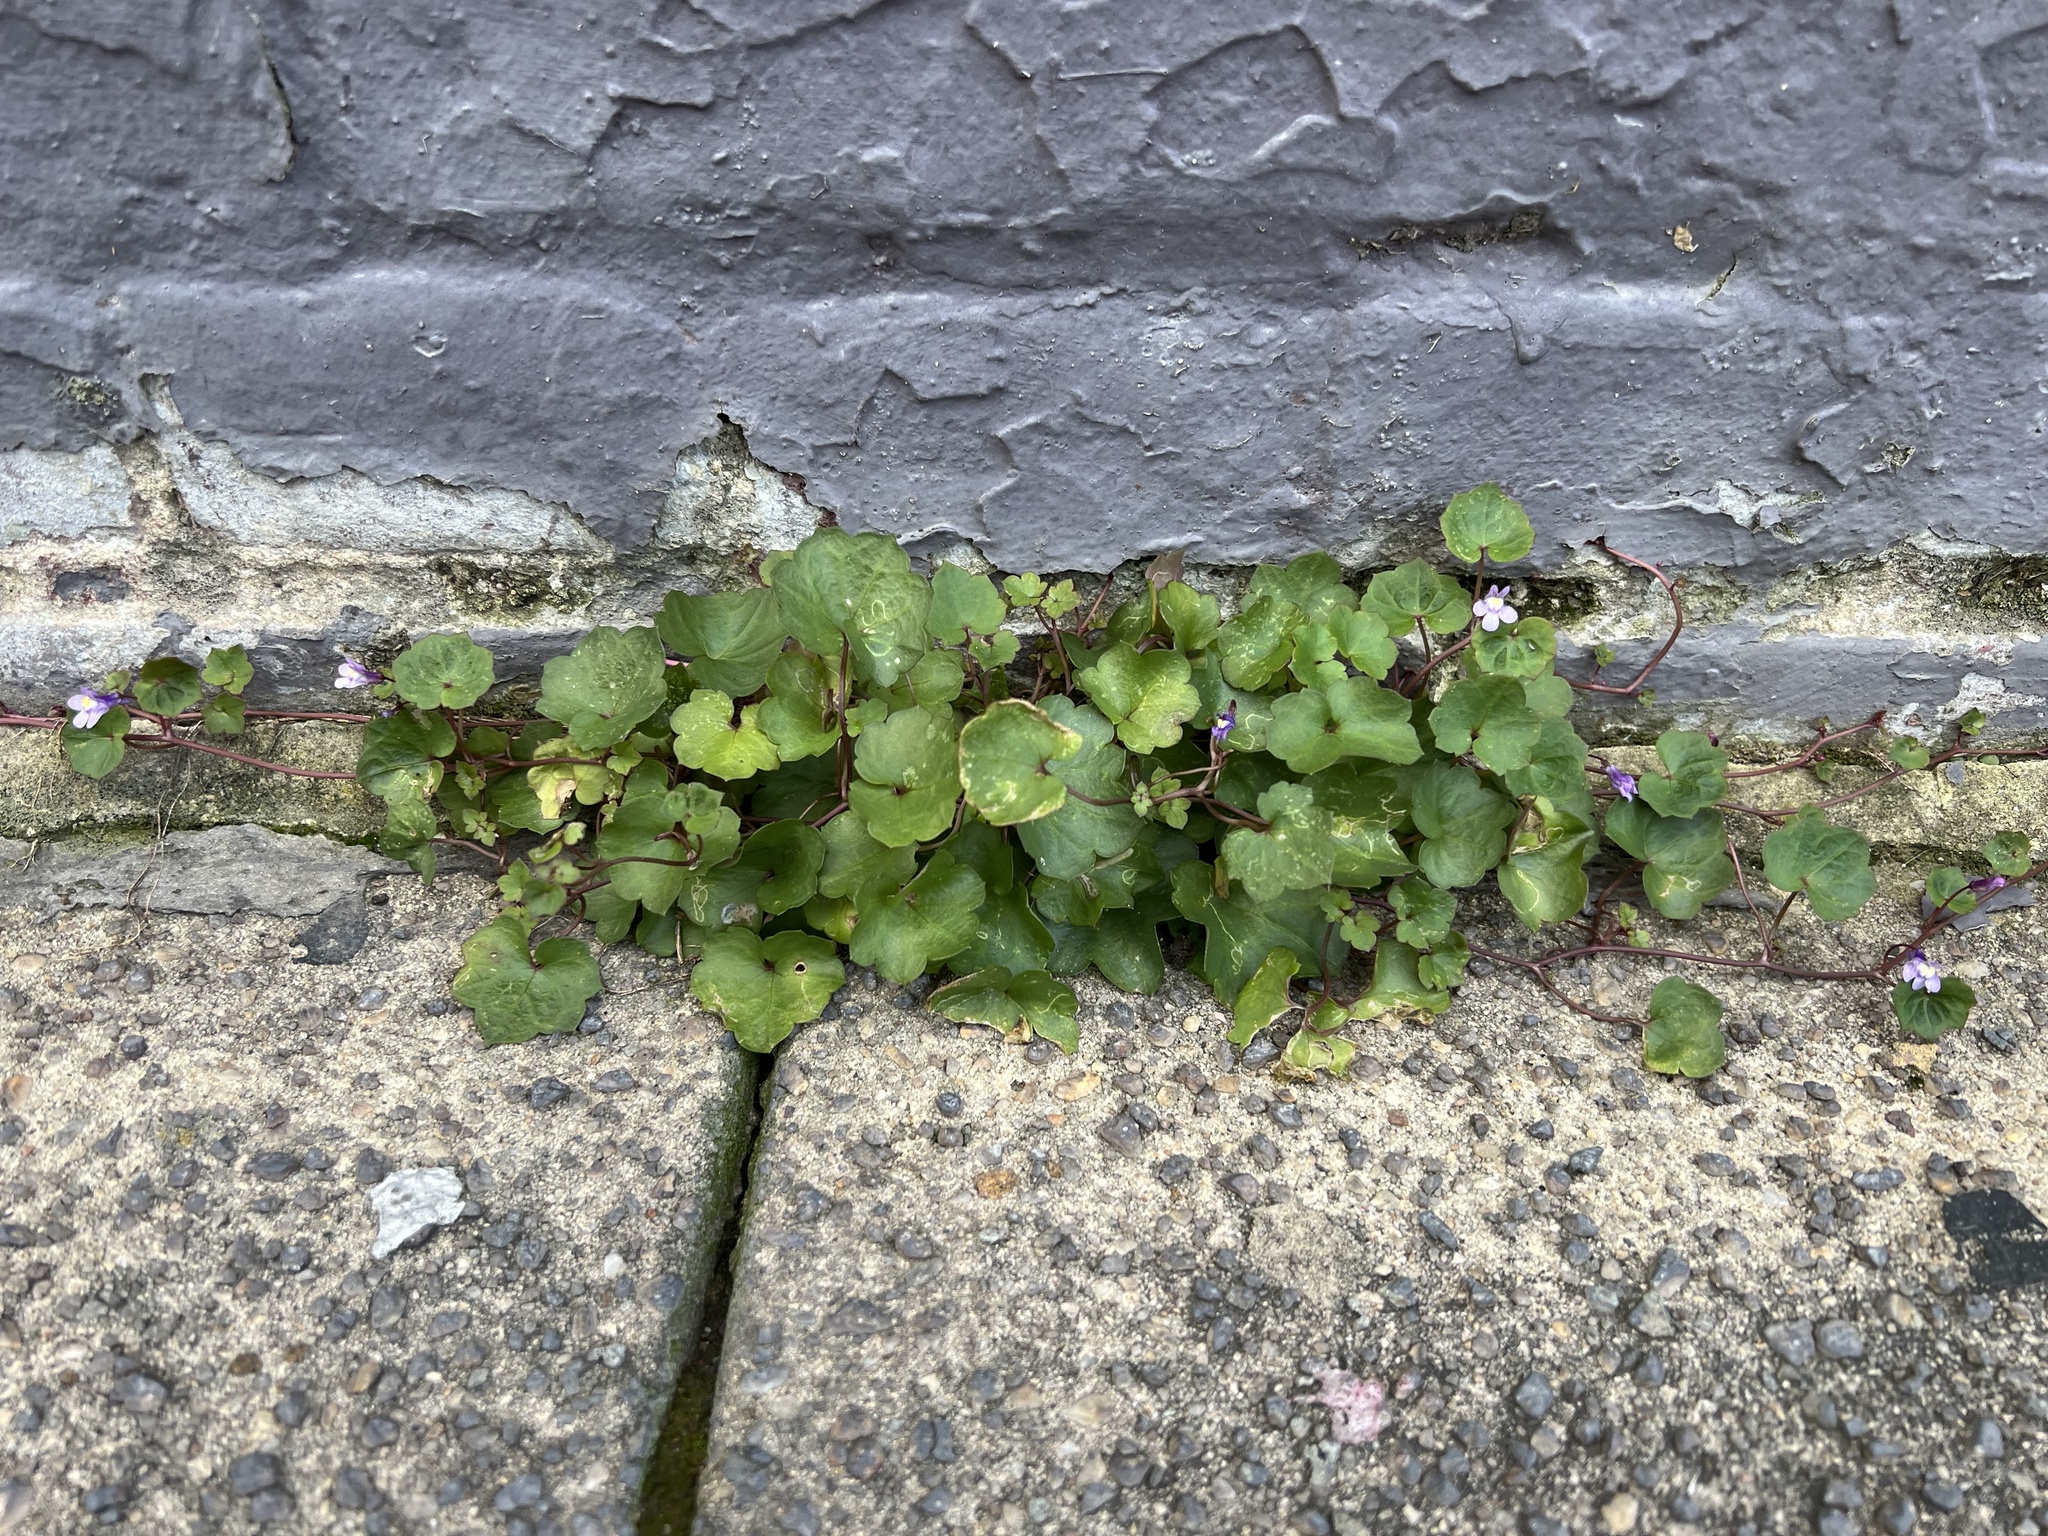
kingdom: Plantae
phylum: Tracheophyta
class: Magnoliopsida
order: Lamiales
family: Plantaginaceae
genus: Cymbalaria
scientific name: Cymbalaria muralis
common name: Ivy-leaved toadflax
